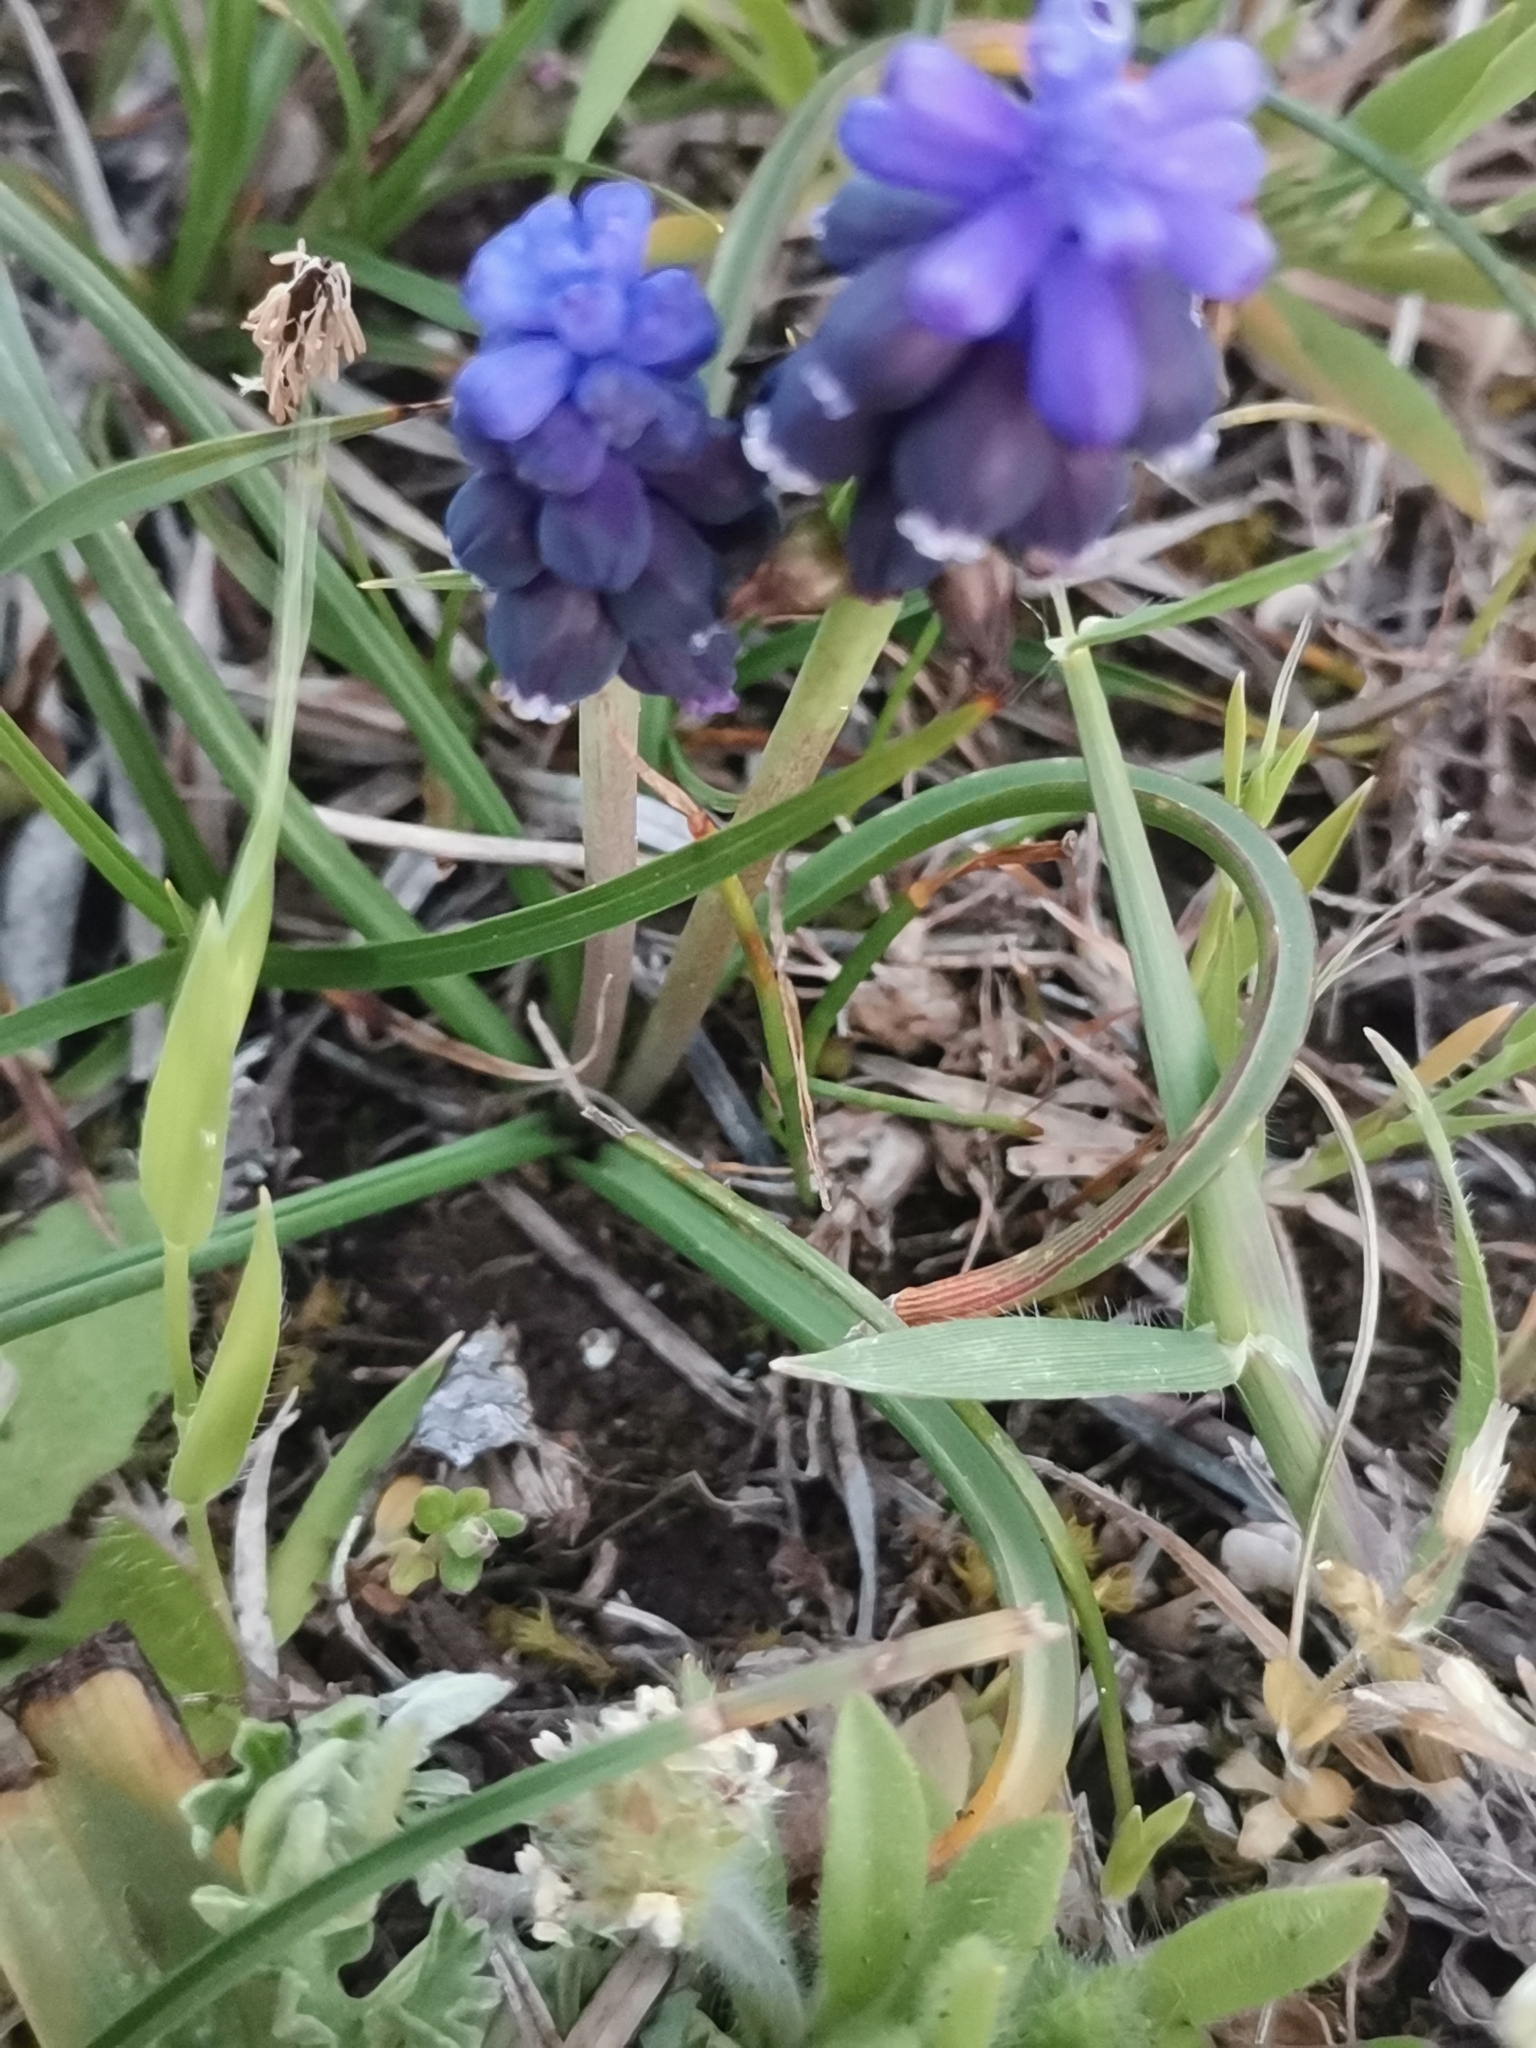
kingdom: Plantae
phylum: Tracheophyta
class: Liliopsida
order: Asparagales
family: Asparagaceae
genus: Muscari
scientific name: Muscari neglectum
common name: Grape-hyacinth
